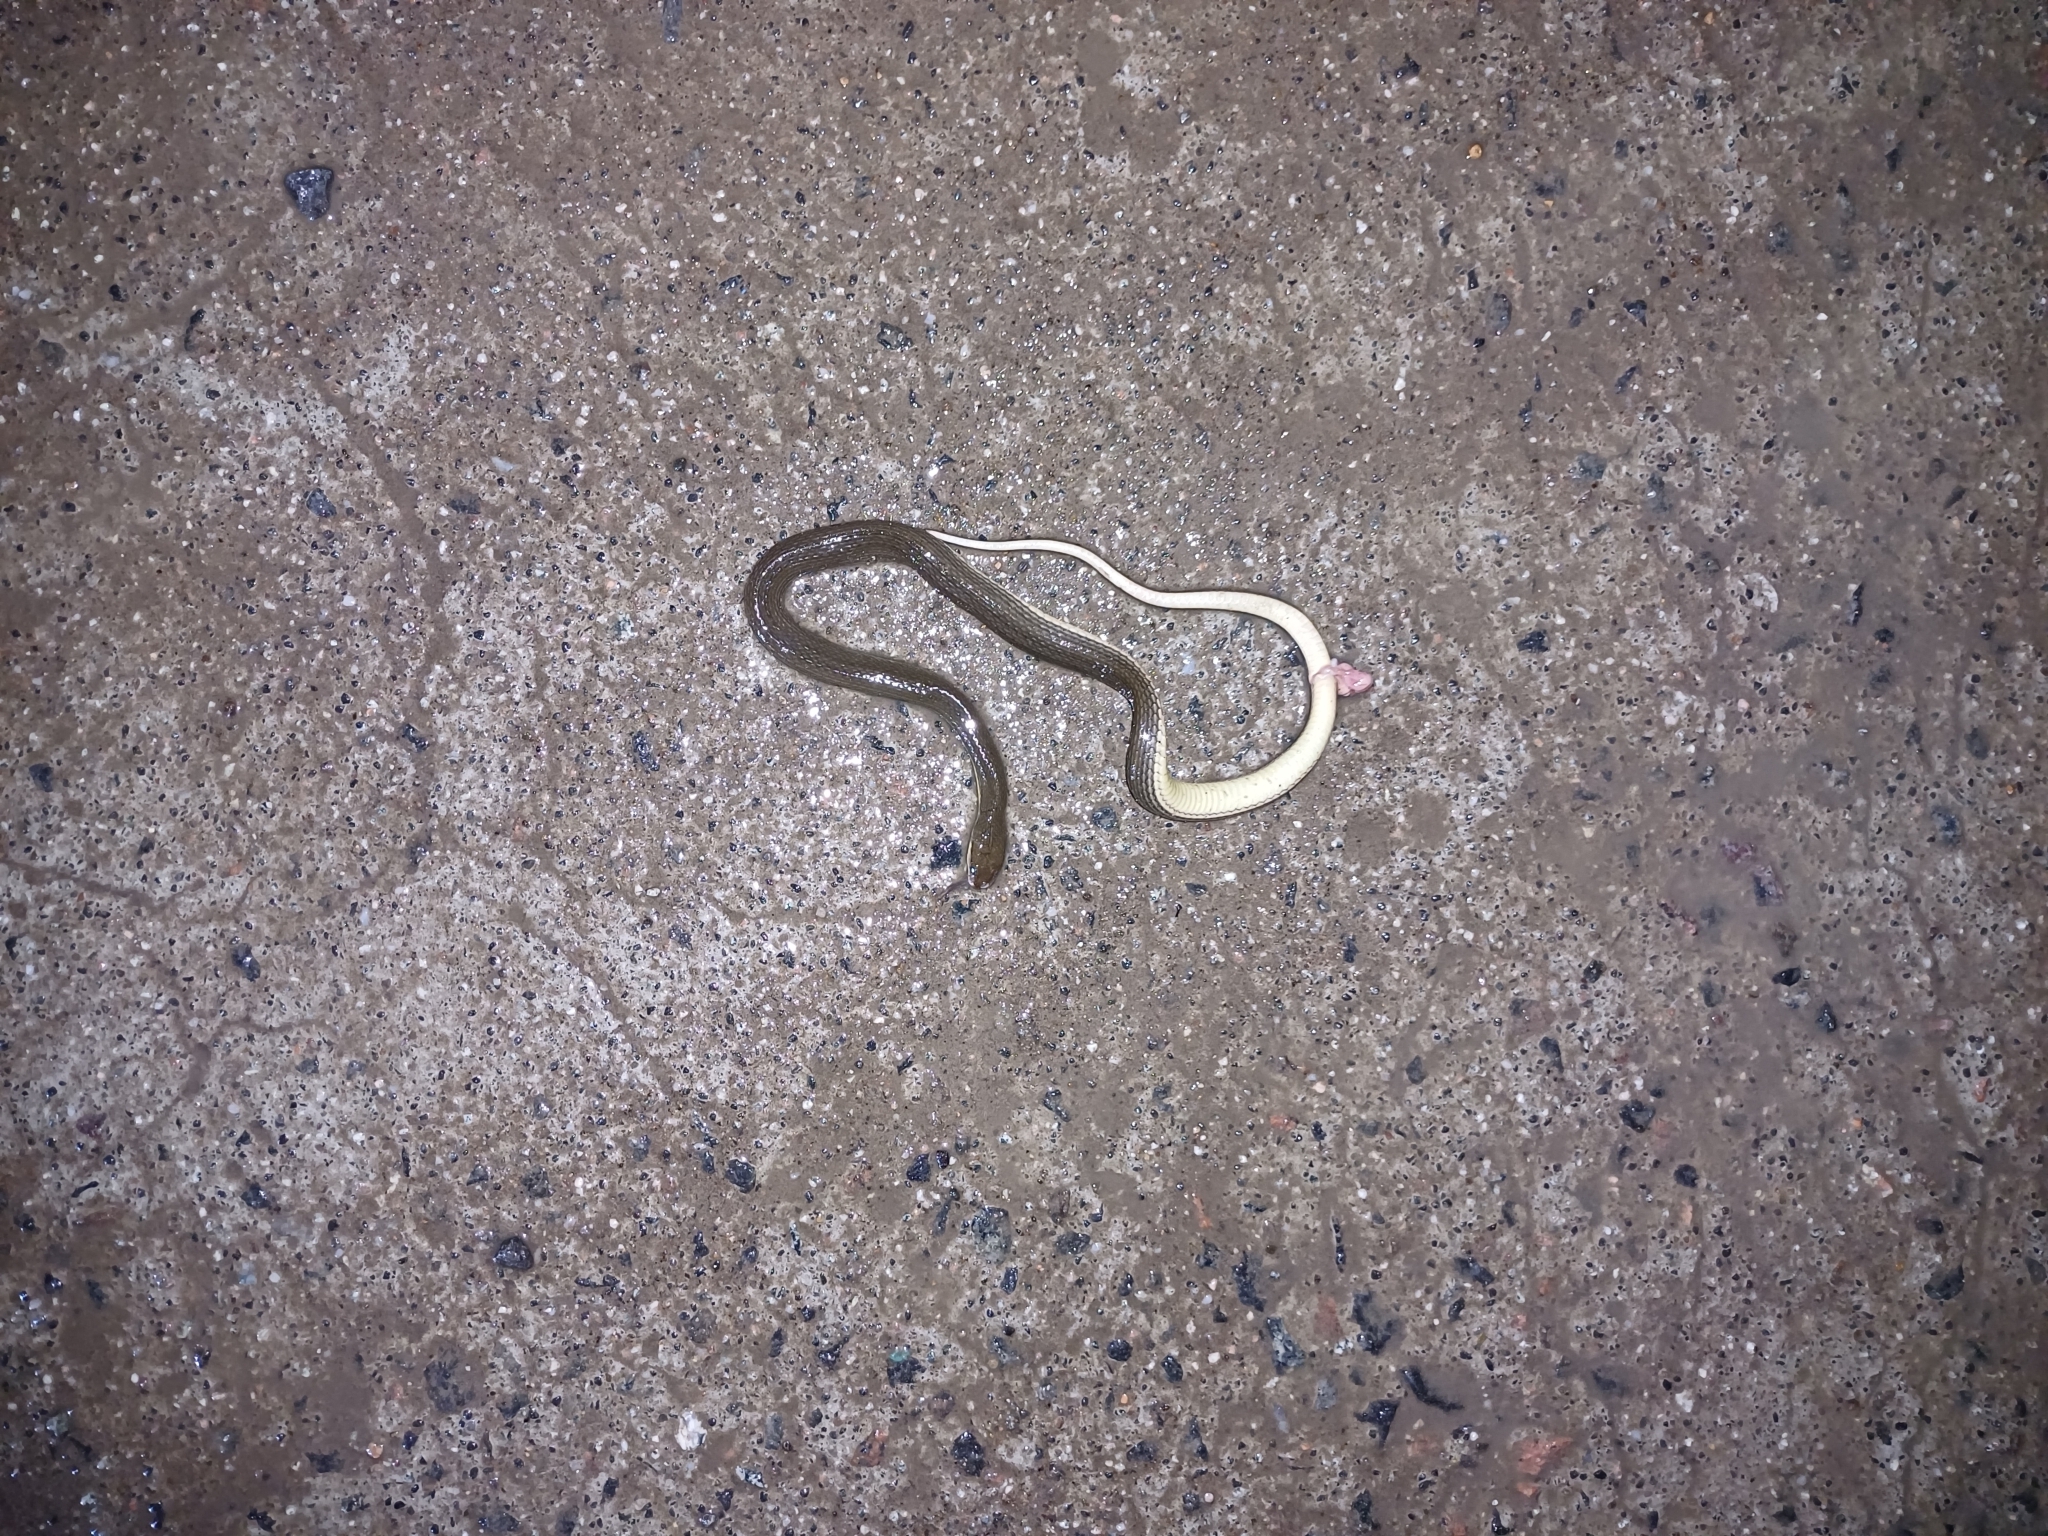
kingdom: Animalia
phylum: Chordata
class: Squamata
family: Colubridae
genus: Atretium
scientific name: Atretium schistosum
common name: Olive keelback wart snake
